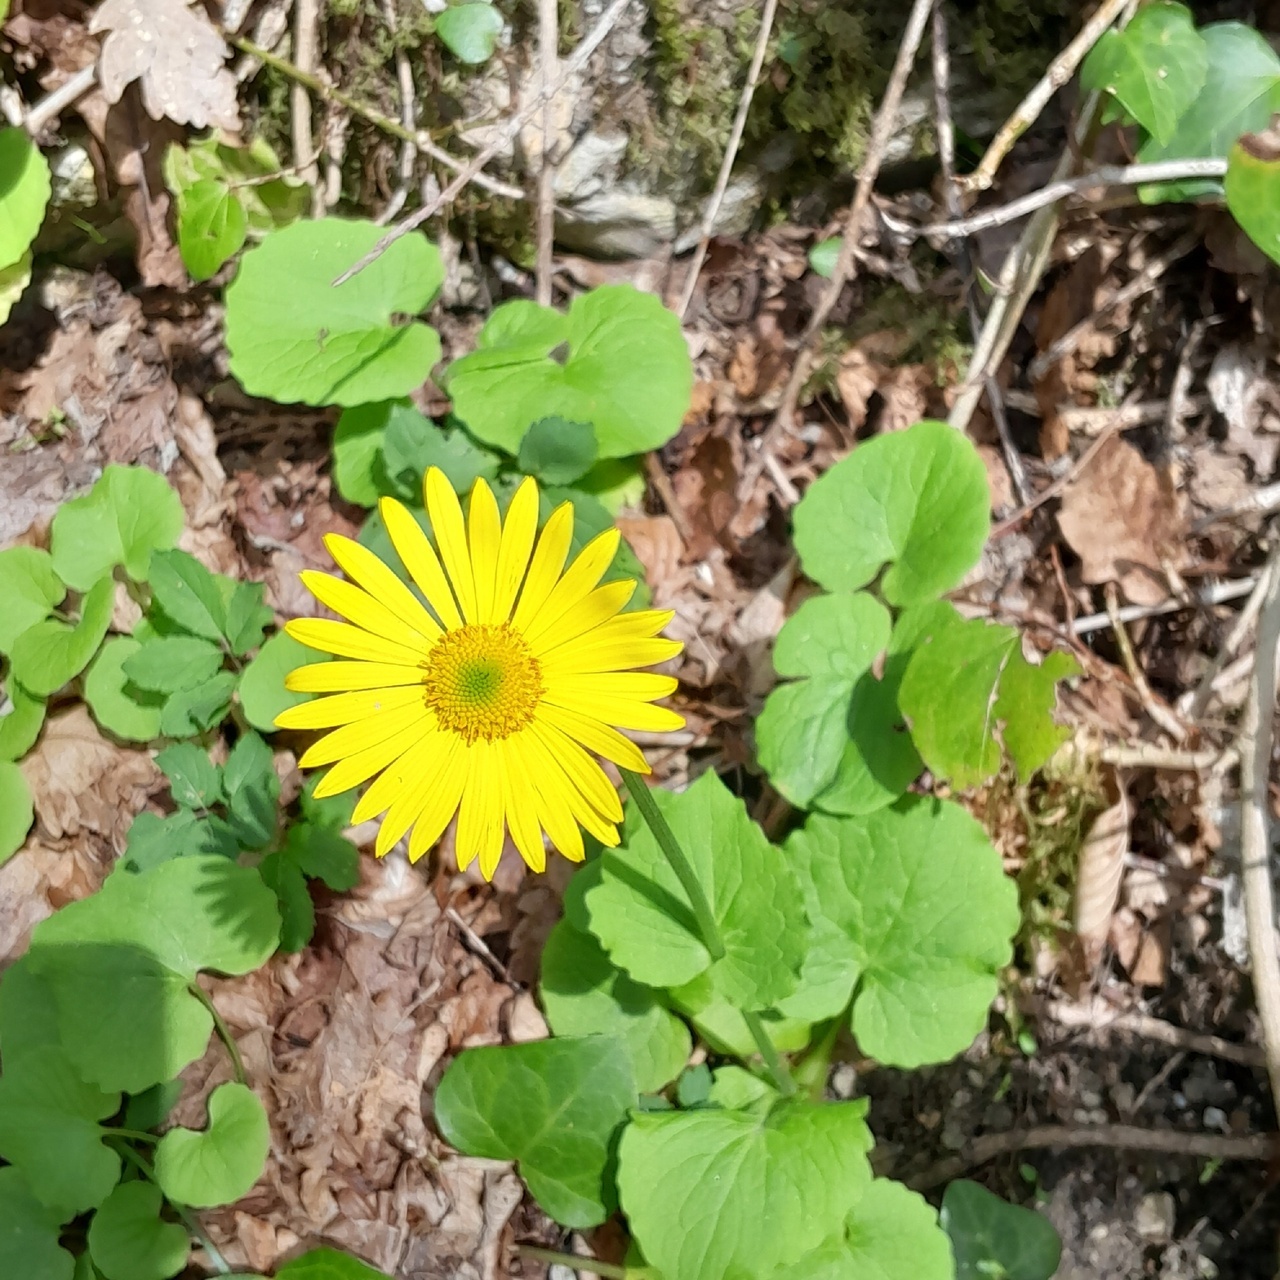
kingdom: Plantae
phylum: Tracheophyta
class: Magnoliopsida
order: Asterales
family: Asteraceae
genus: Doronicum
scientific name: Doronicum
